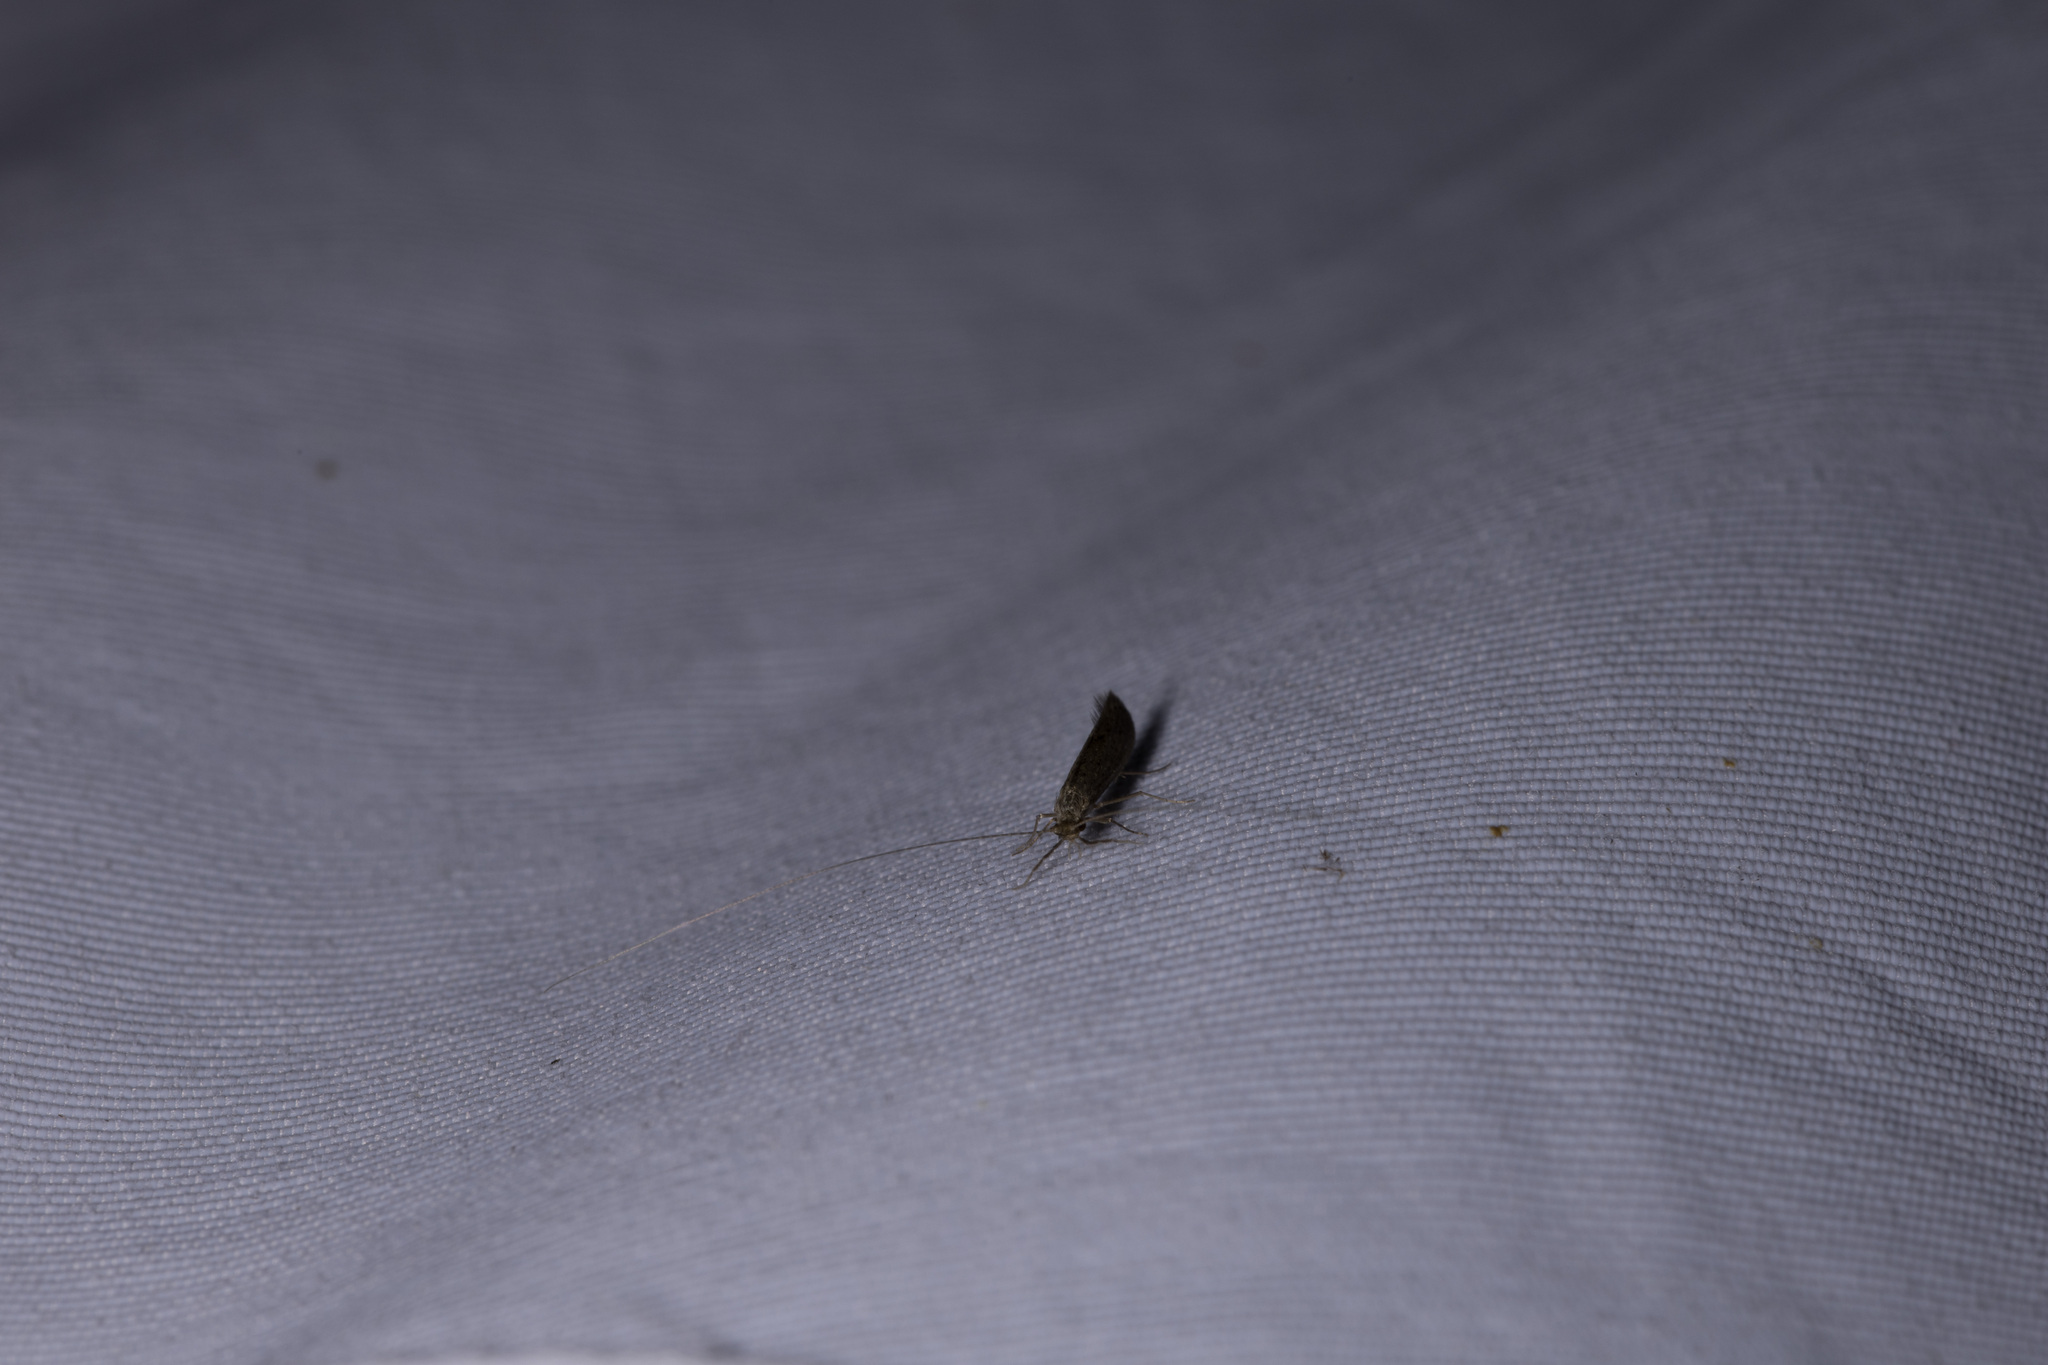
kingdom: Animalia
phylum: Arthropoda
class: Insecta
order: Trichoptera
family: Leptoceridae
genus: Leptocerus
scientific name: Leptocerus tineiformis
